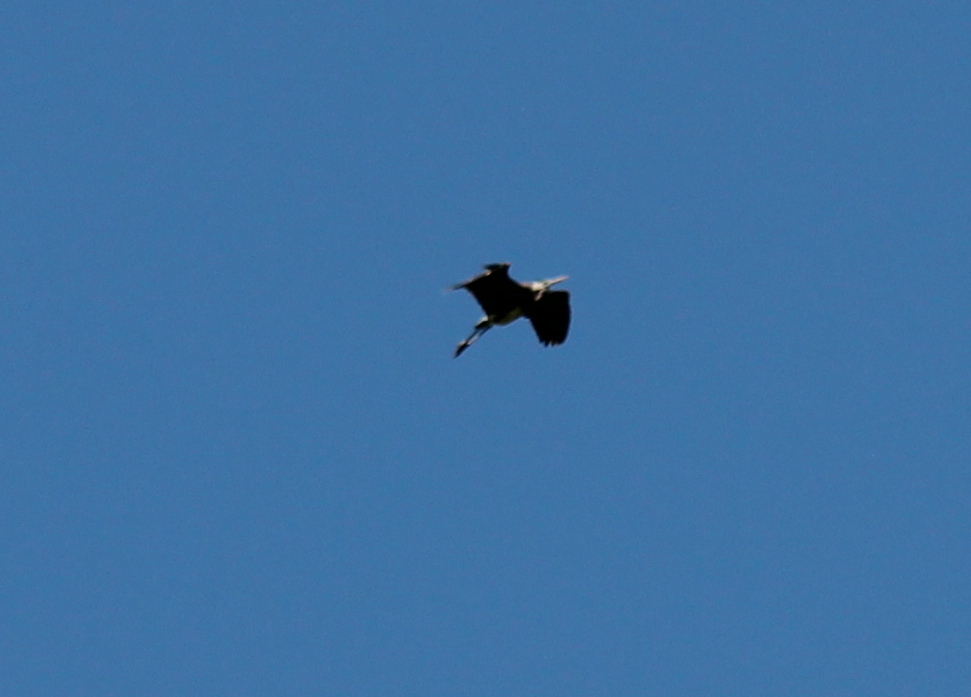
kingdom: Animalia
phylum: Chordata
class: Aves
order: Pelecaniformes
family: Ardeidae
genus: Ardea
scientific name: Ardea herodias
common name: Great blue heron
